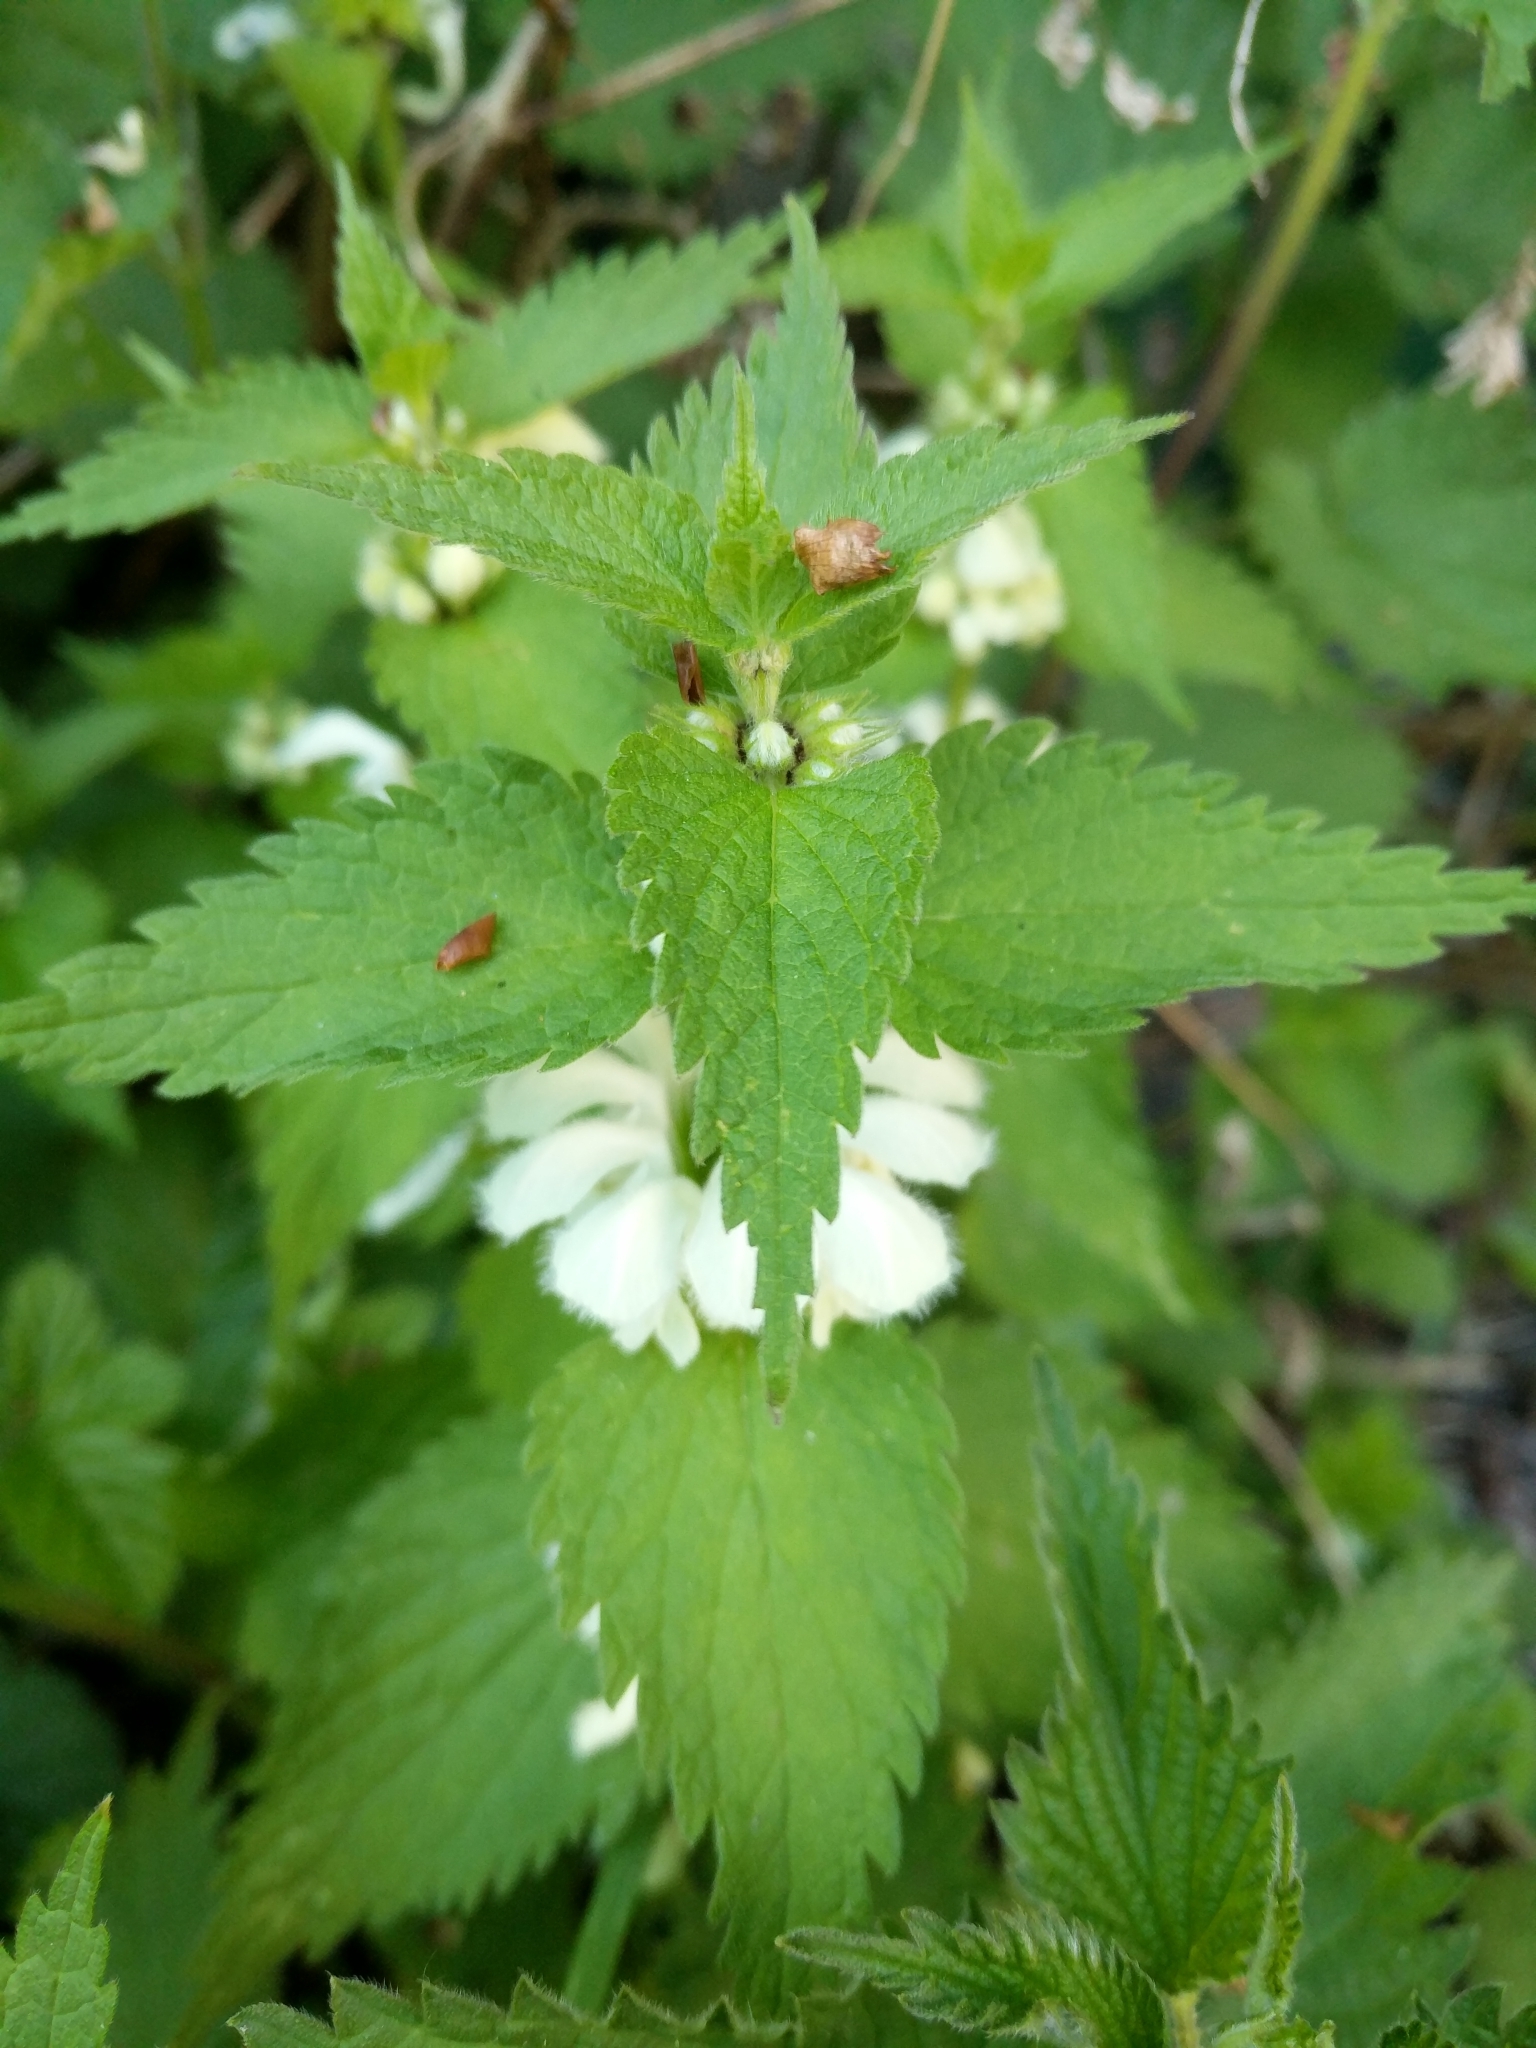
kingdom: Plantae
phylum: Tracheophyta
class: Magnoliopsida
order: Lamiales
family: Lamiaceae
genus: Lamium
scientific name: Lamium album
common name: White dead-nettle
